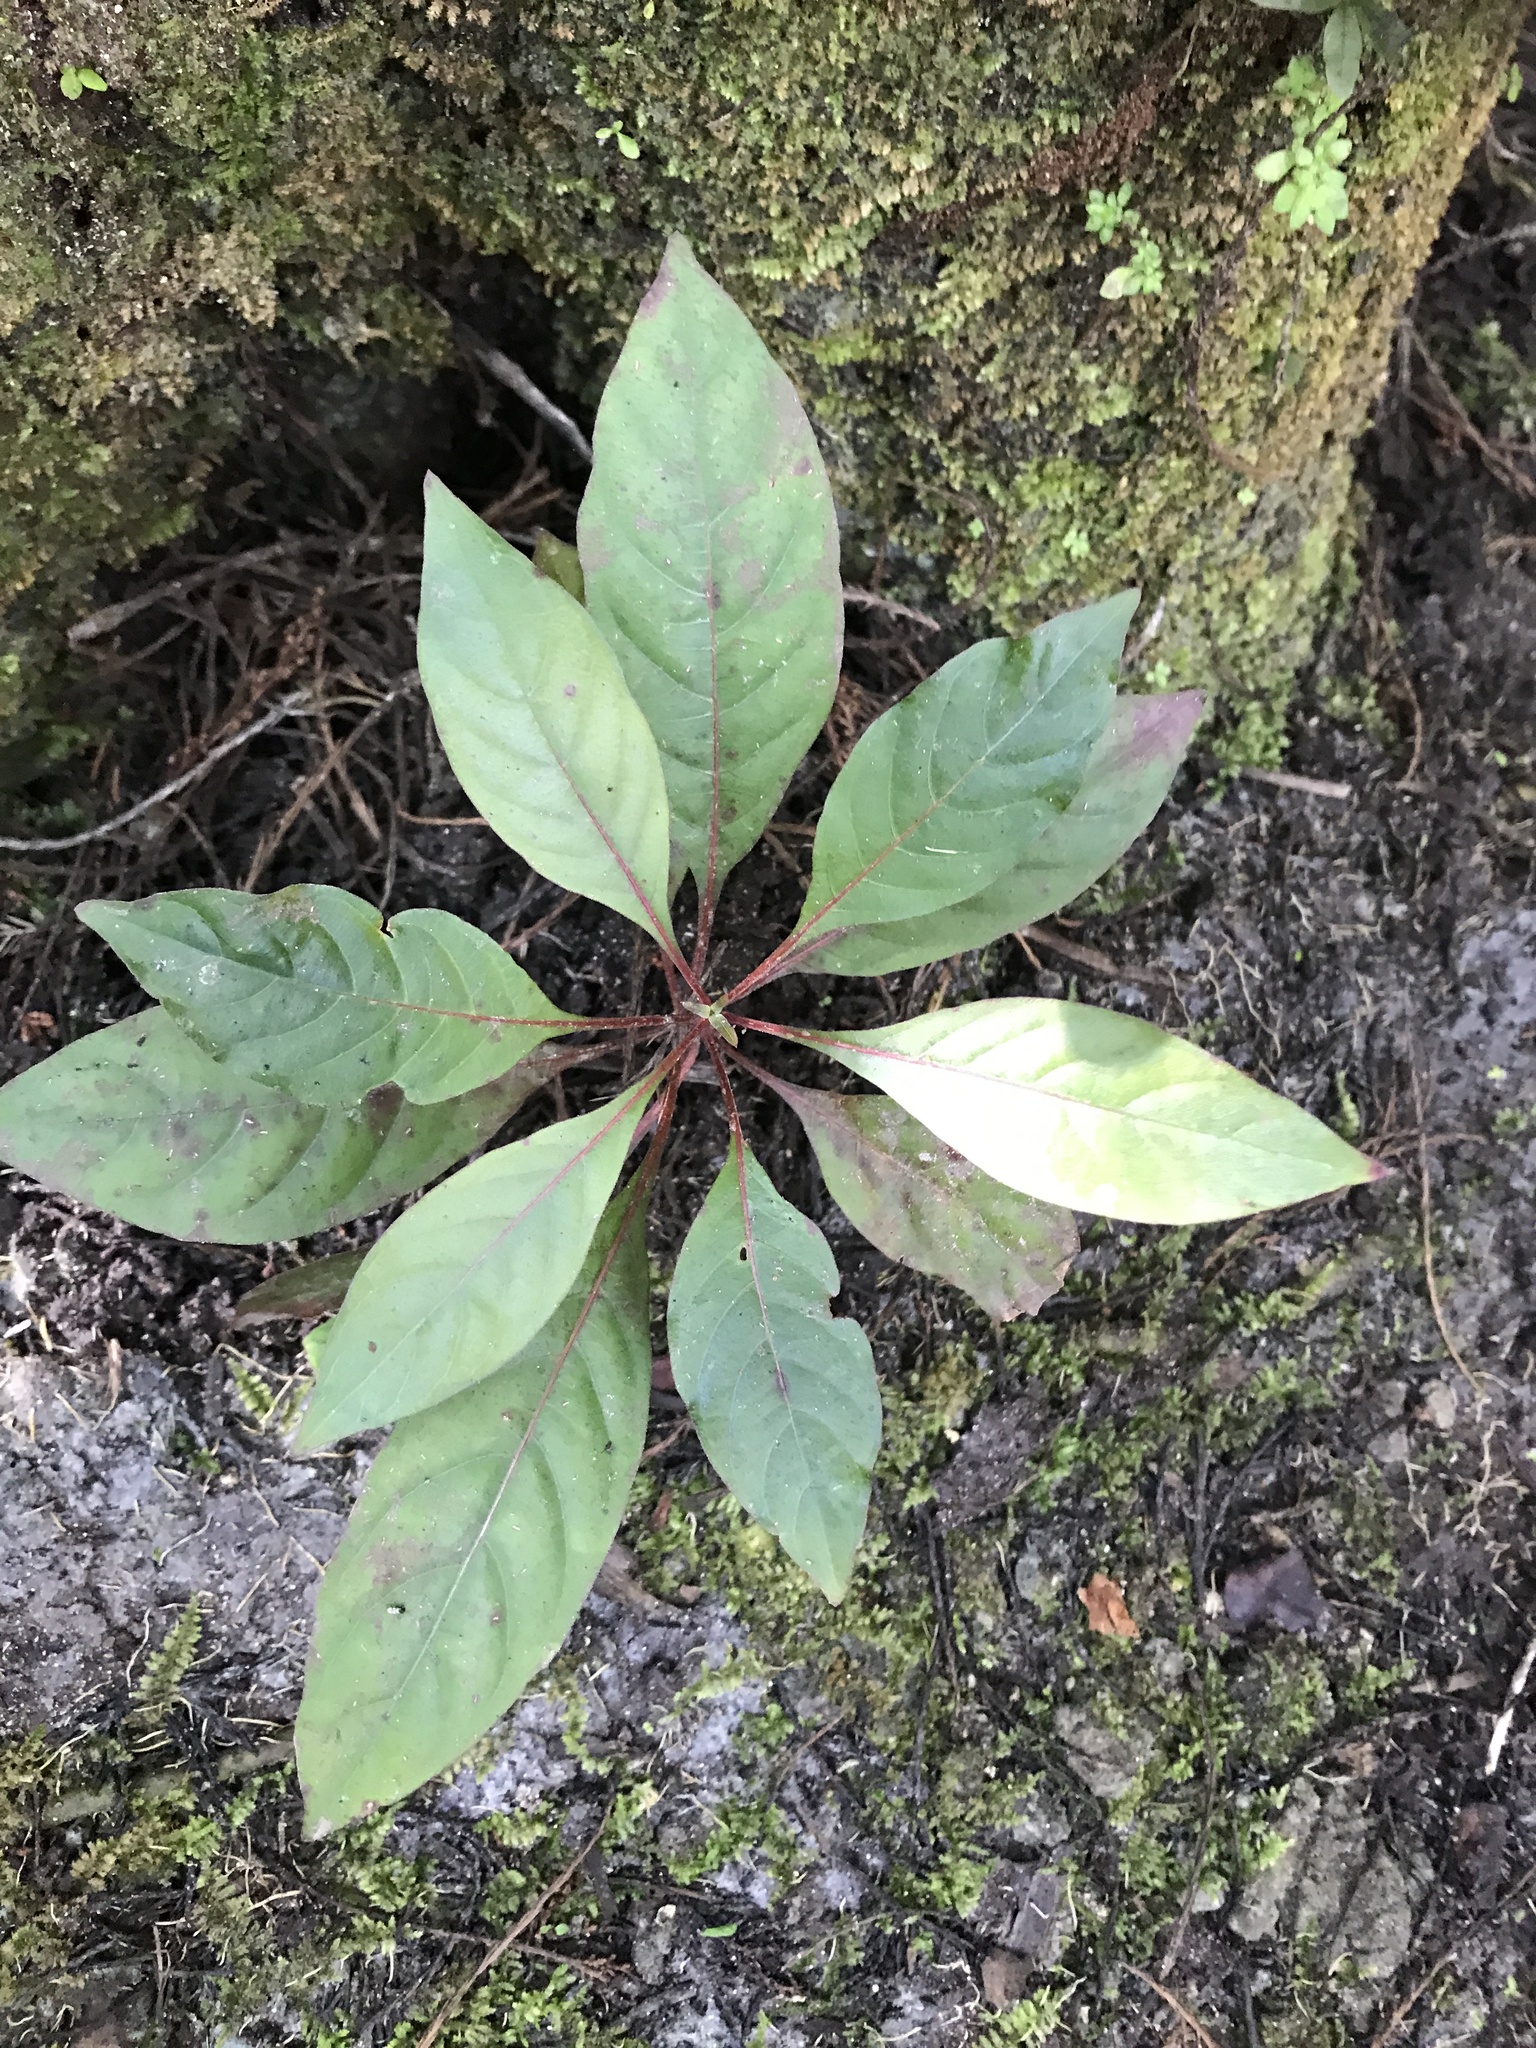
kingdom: Plantae
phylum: Tracheophyta
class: Magnoliopsida
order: Gentianales
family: Rubiaceae
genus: Hamelia
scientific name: Hamelia patens
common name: Redhead
